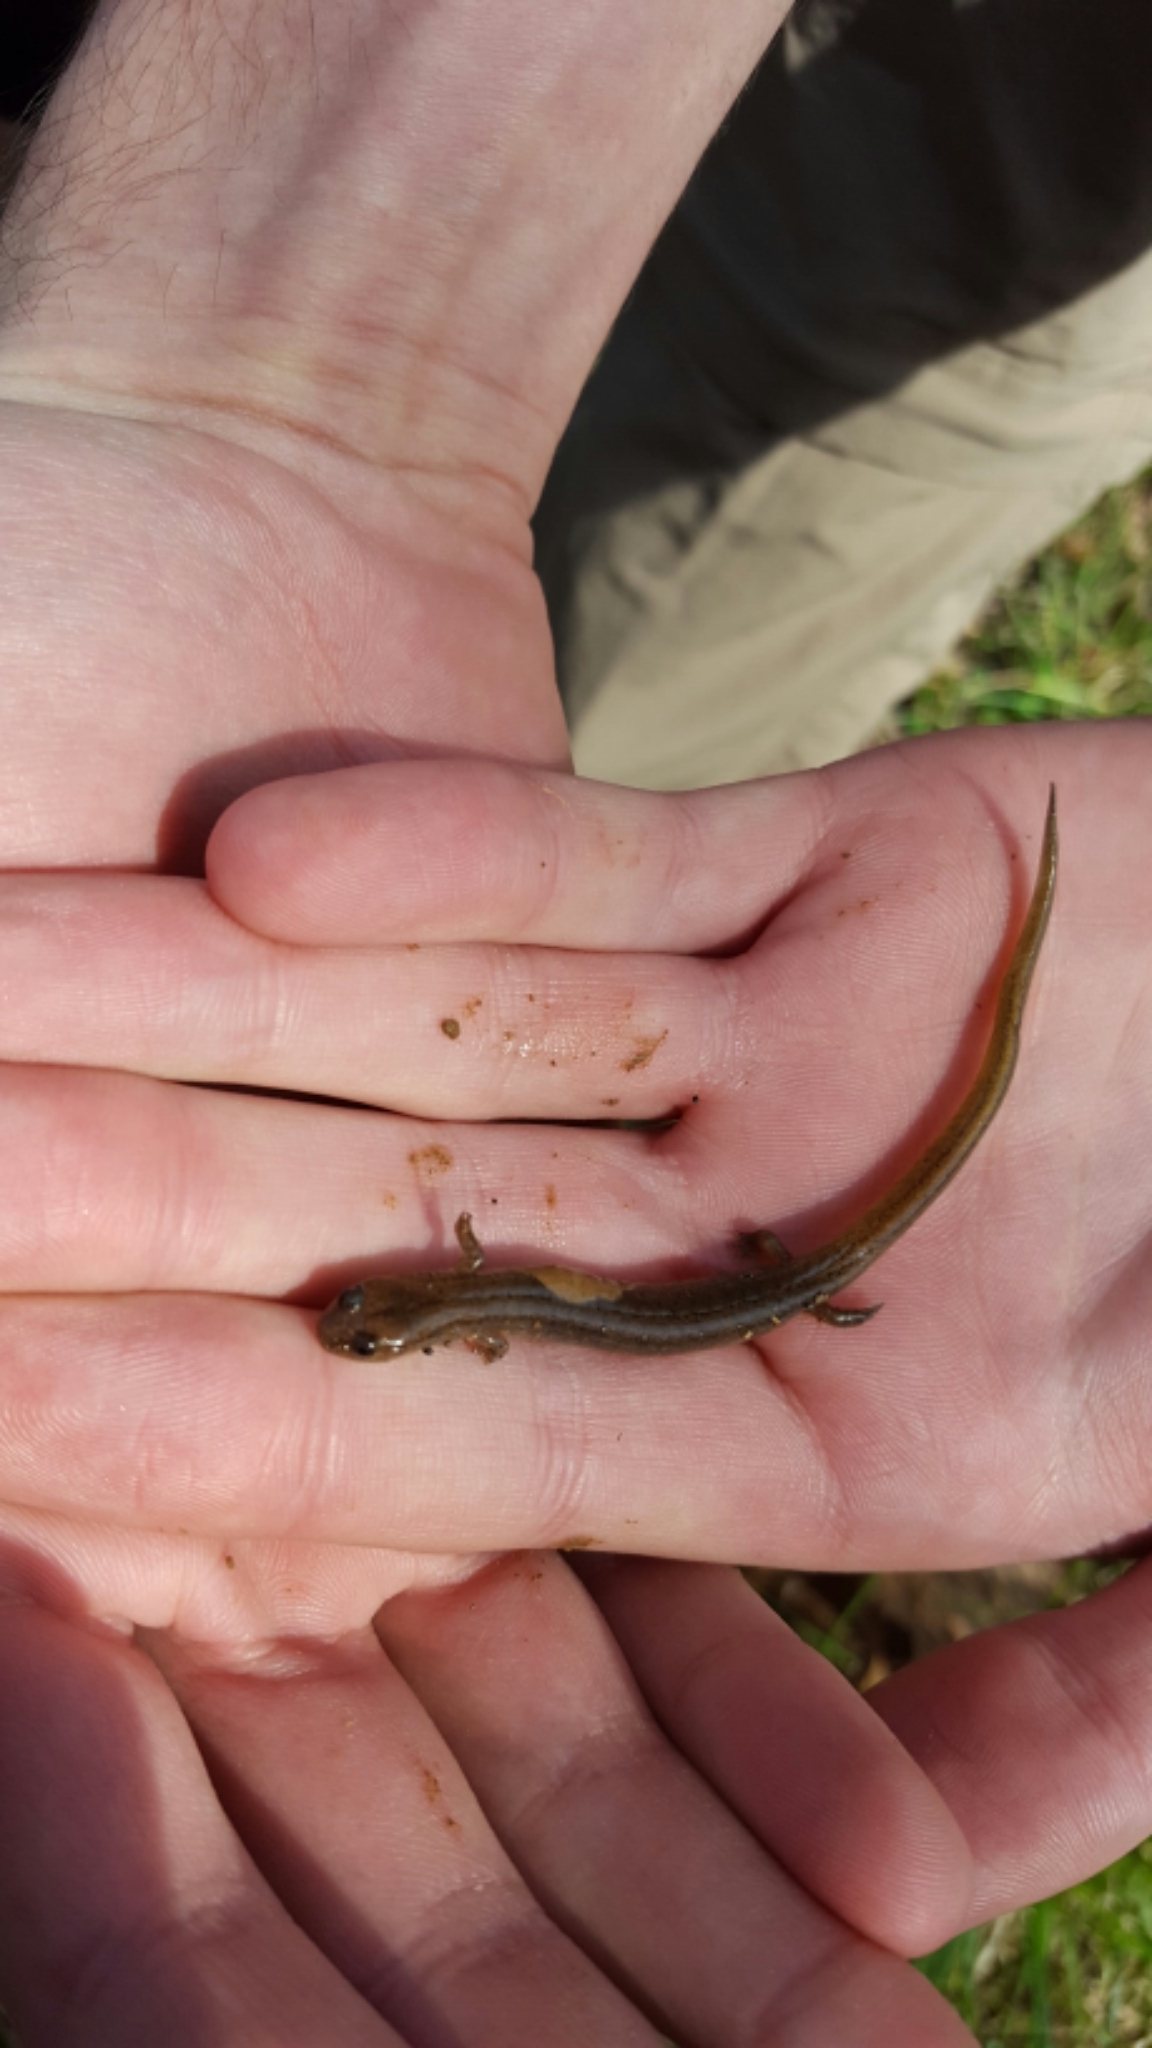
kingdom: Animalia
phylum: Chordata
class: Amphibia
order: Caudata
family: Plethodontidae
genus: Eurycea
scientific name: Eurycea tynerensis
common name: Oklahoma salamander
